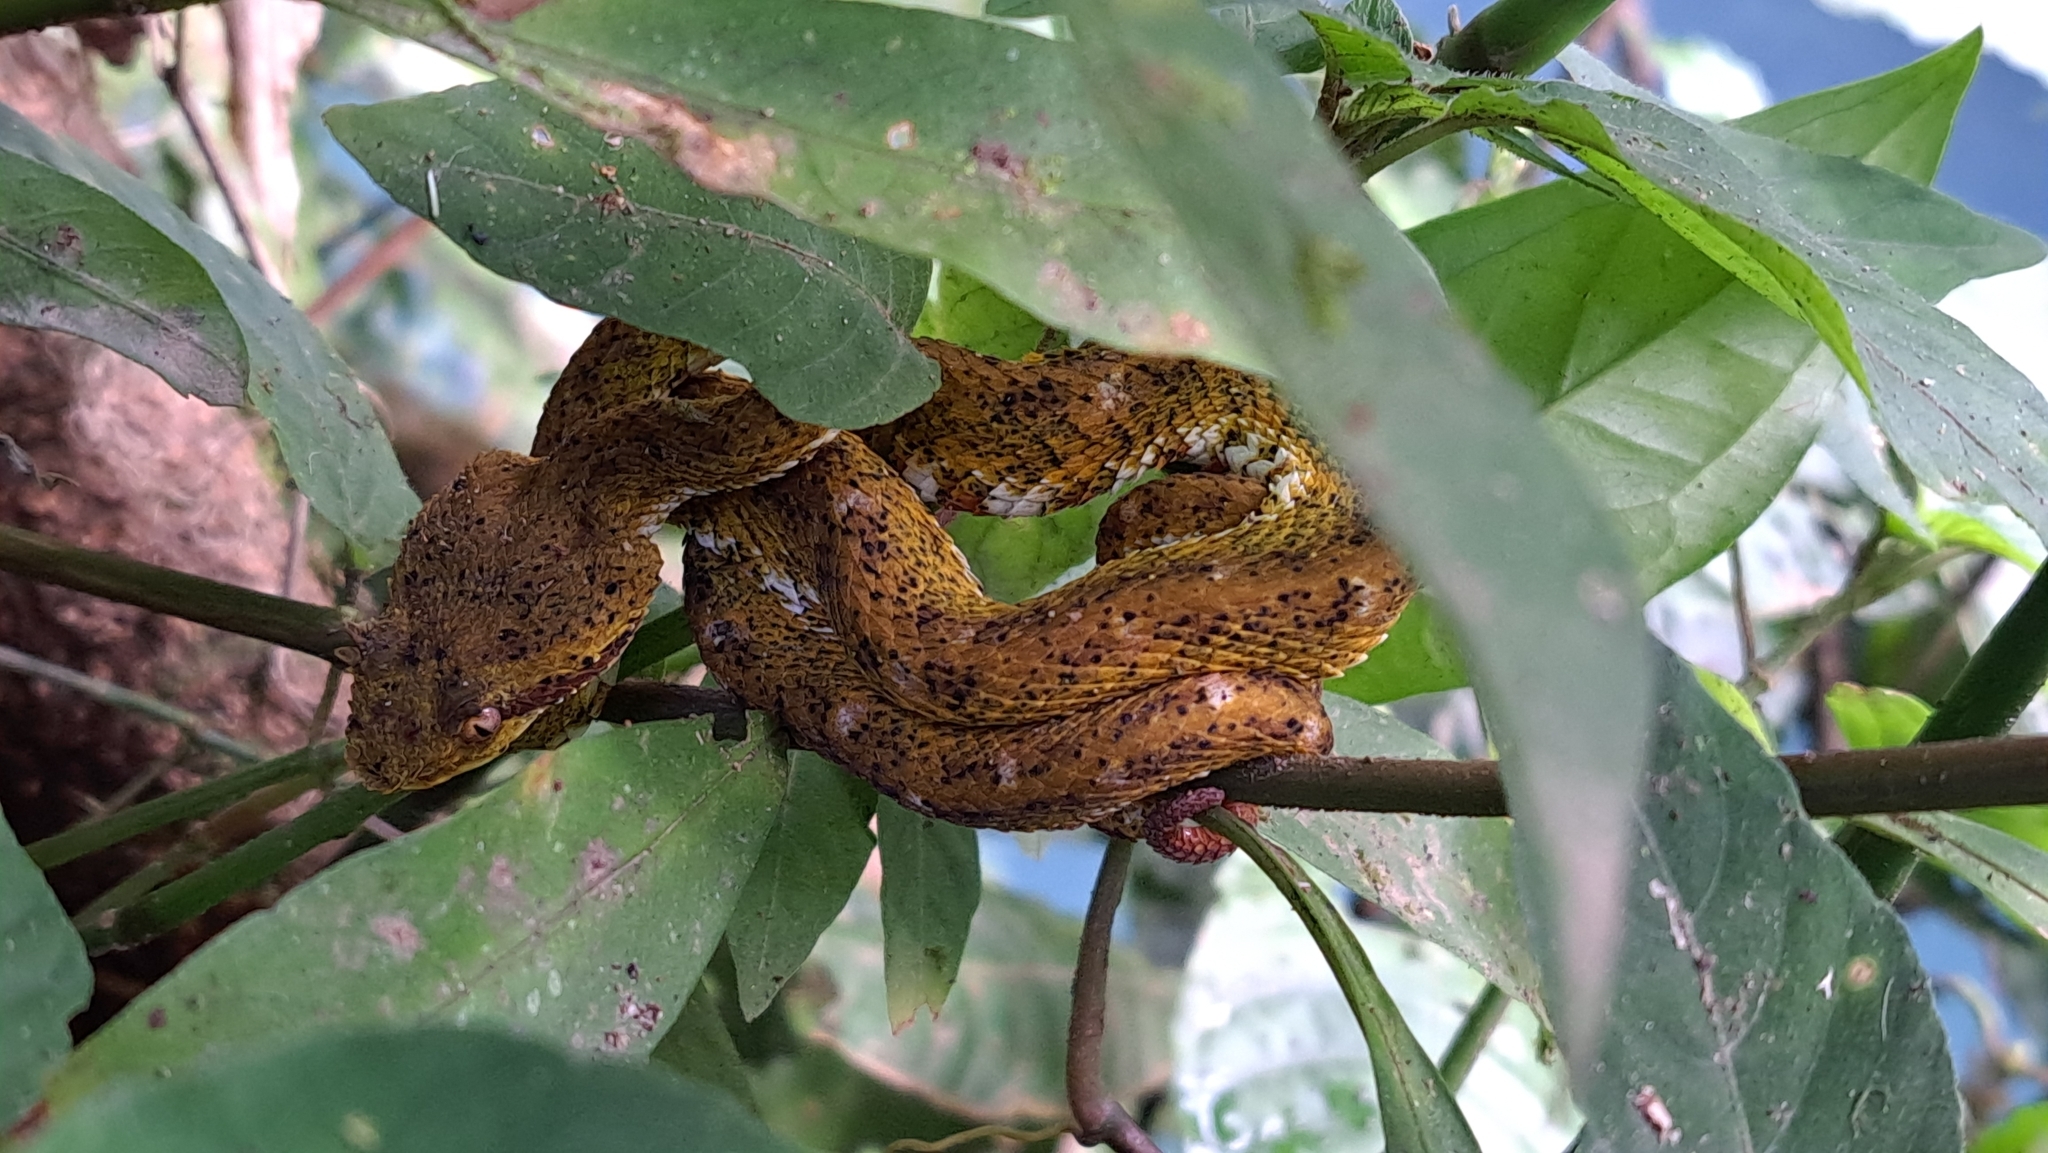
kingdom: Animalia
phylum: Chordata
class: Squamata
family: Viperidae
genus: Bothriechis
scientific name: Bothriechis schlegelii
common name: Eyelash viper
